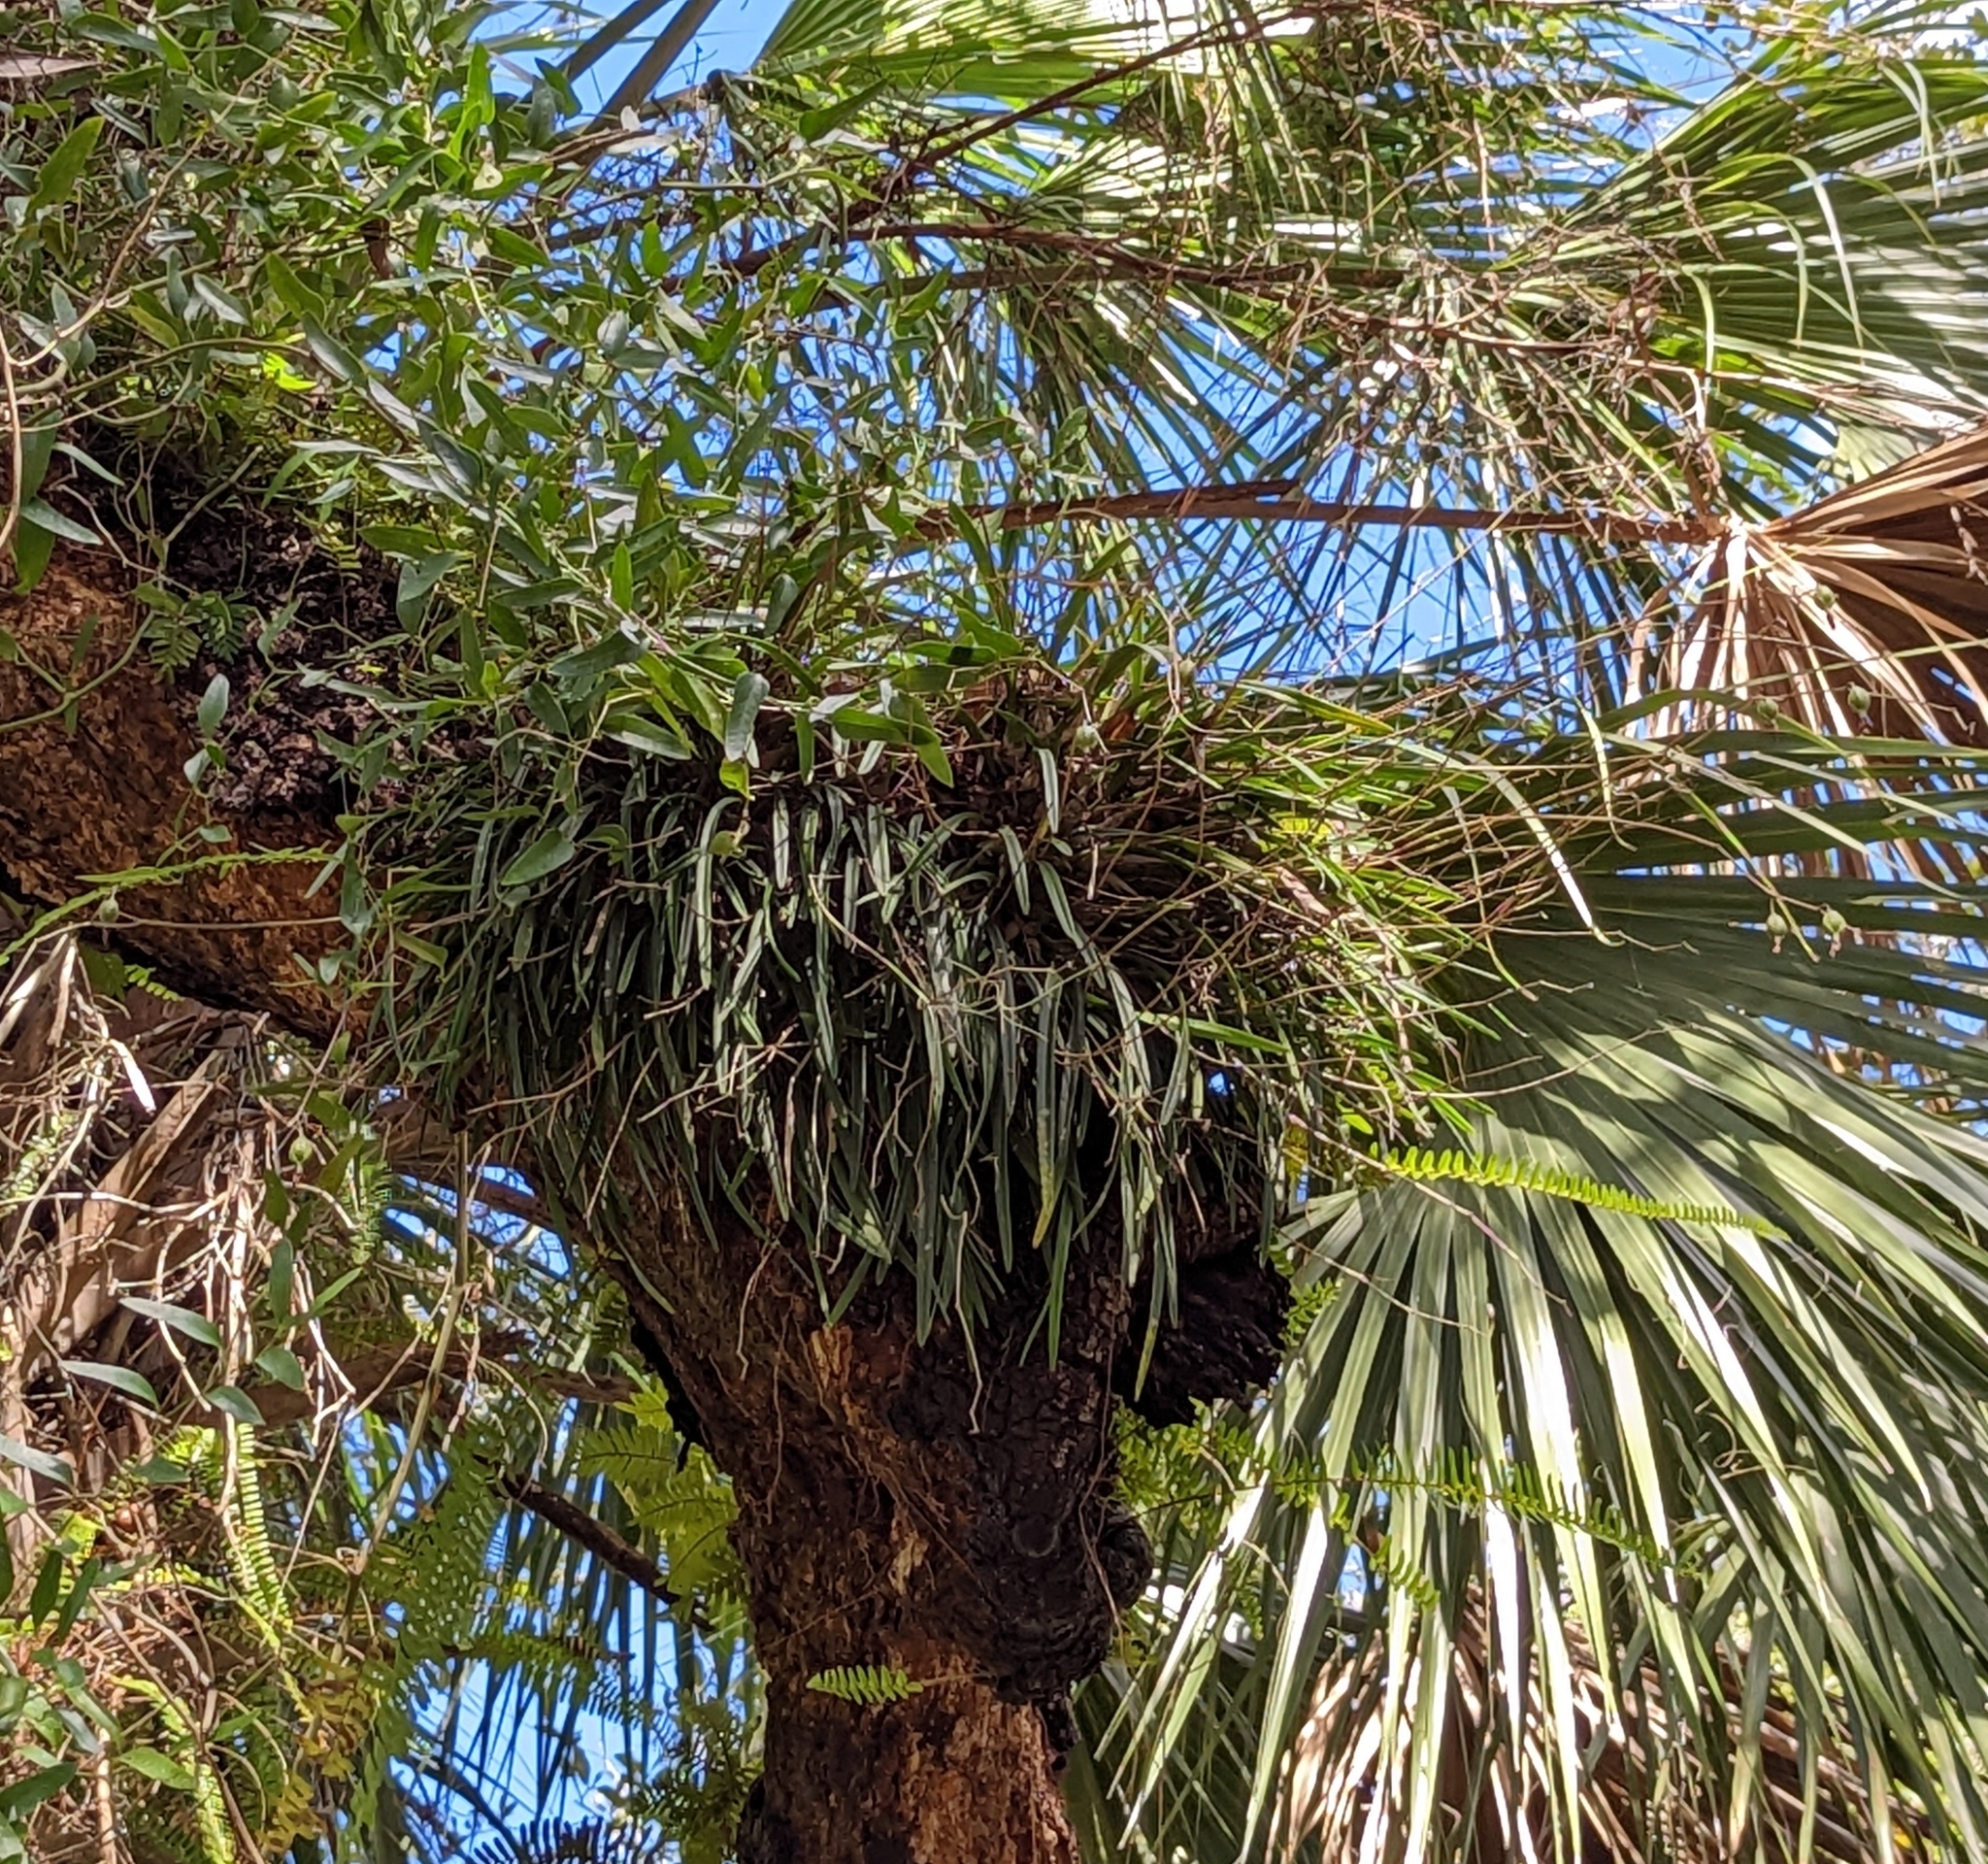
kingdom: Plantae
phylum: Tracheophyta
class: Liliopsida
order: Asparagales
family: Orchidaceae
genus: Encyclia
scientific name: Encyclia tampensis
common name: Florida butterfly orchid
